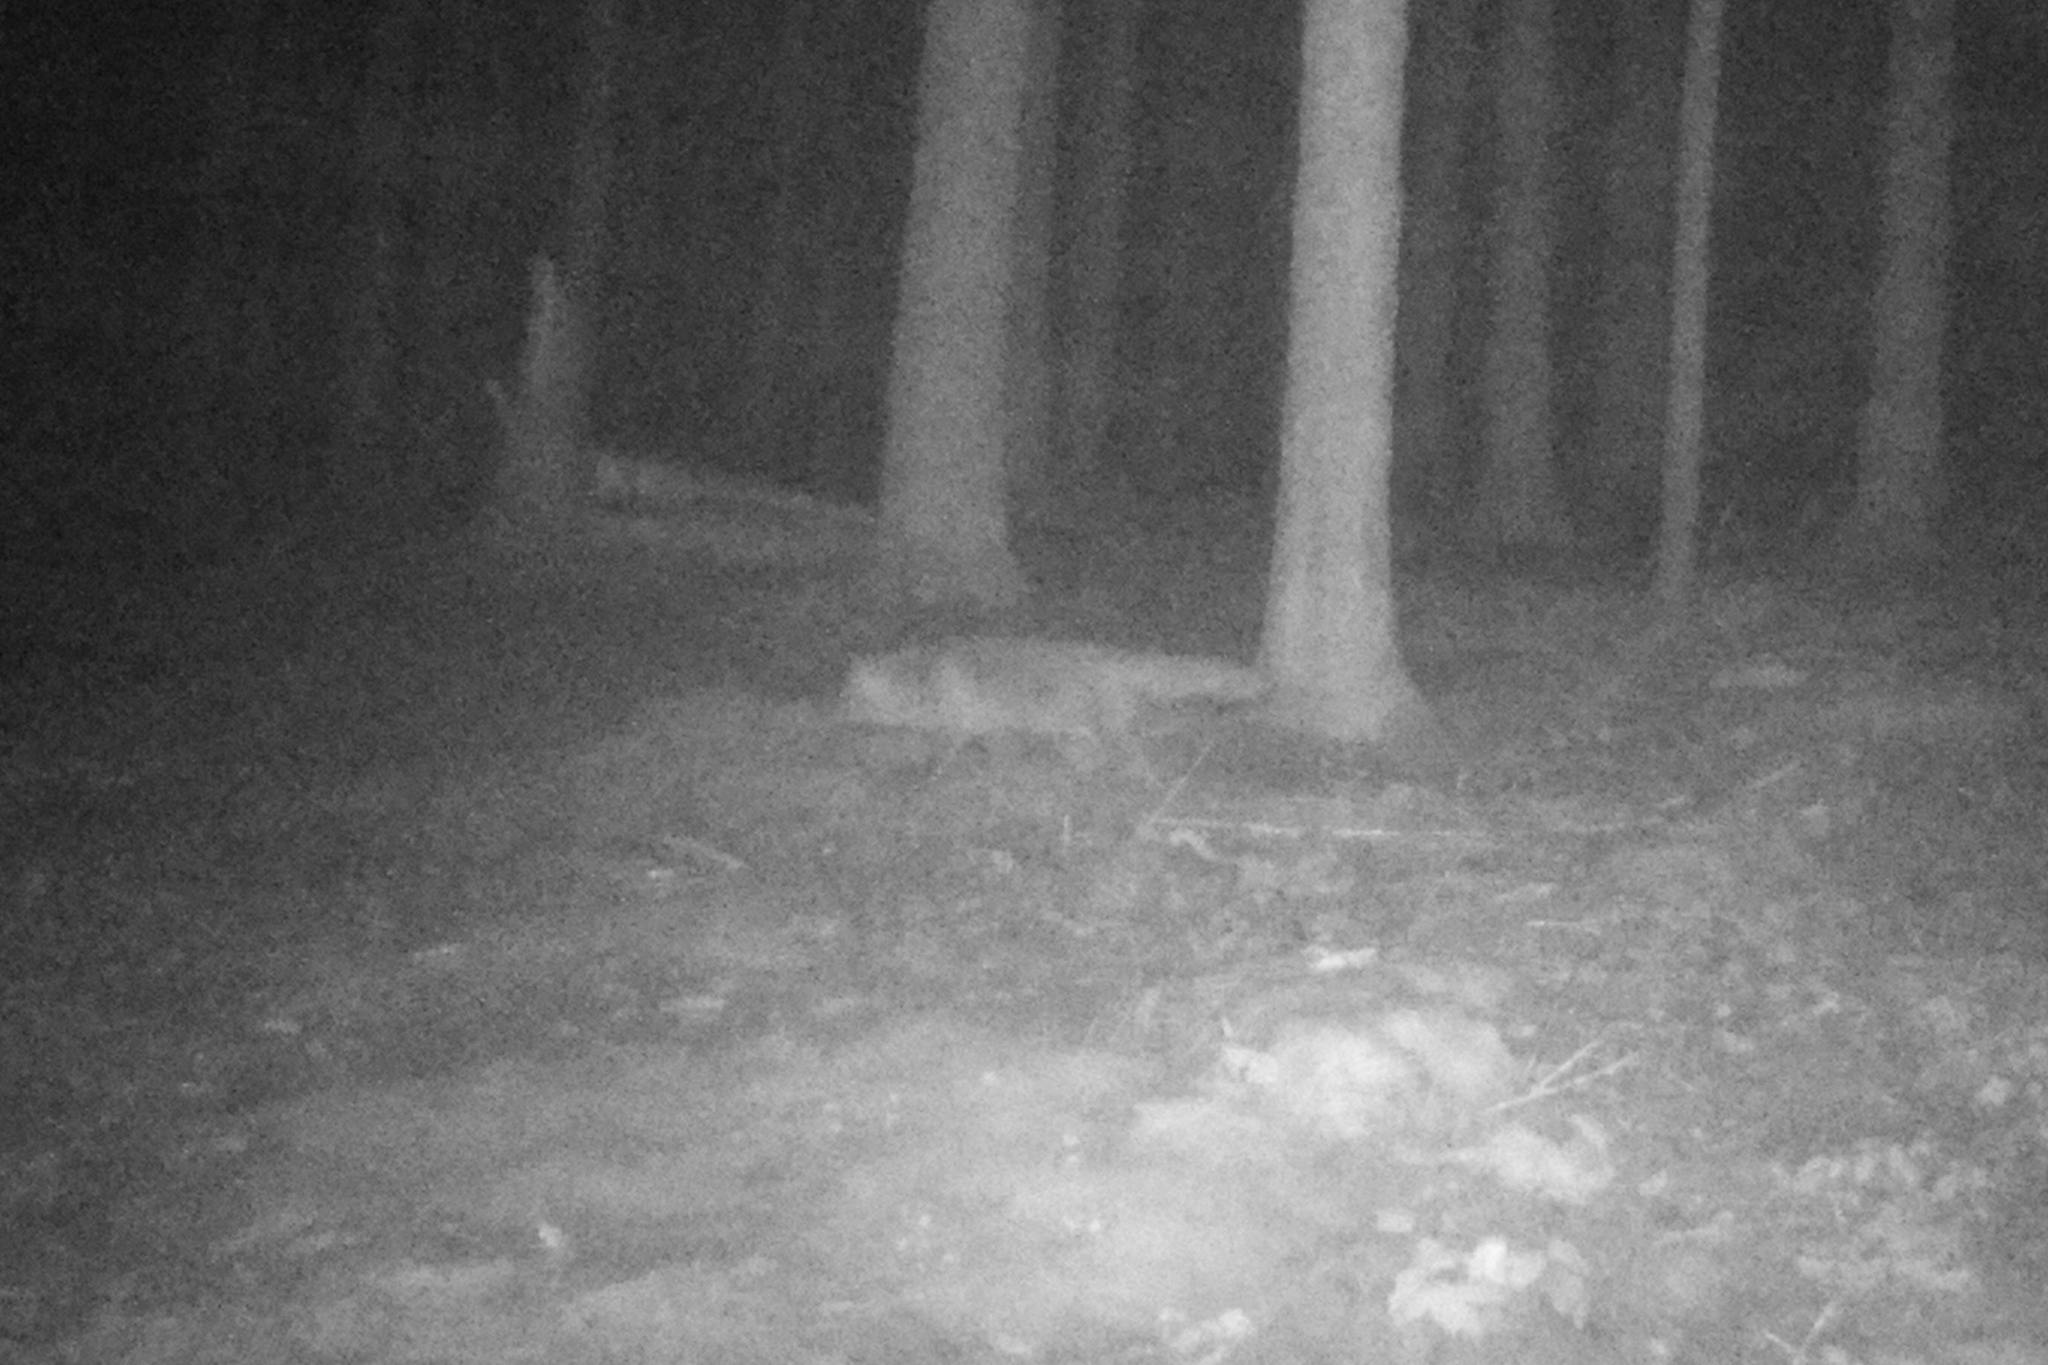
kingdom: Animalia
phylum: Chordata
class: Mammalia
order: Carnivora
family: Canidae
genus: Vulpes
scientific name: Vulpes vulpes
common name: Red fox
